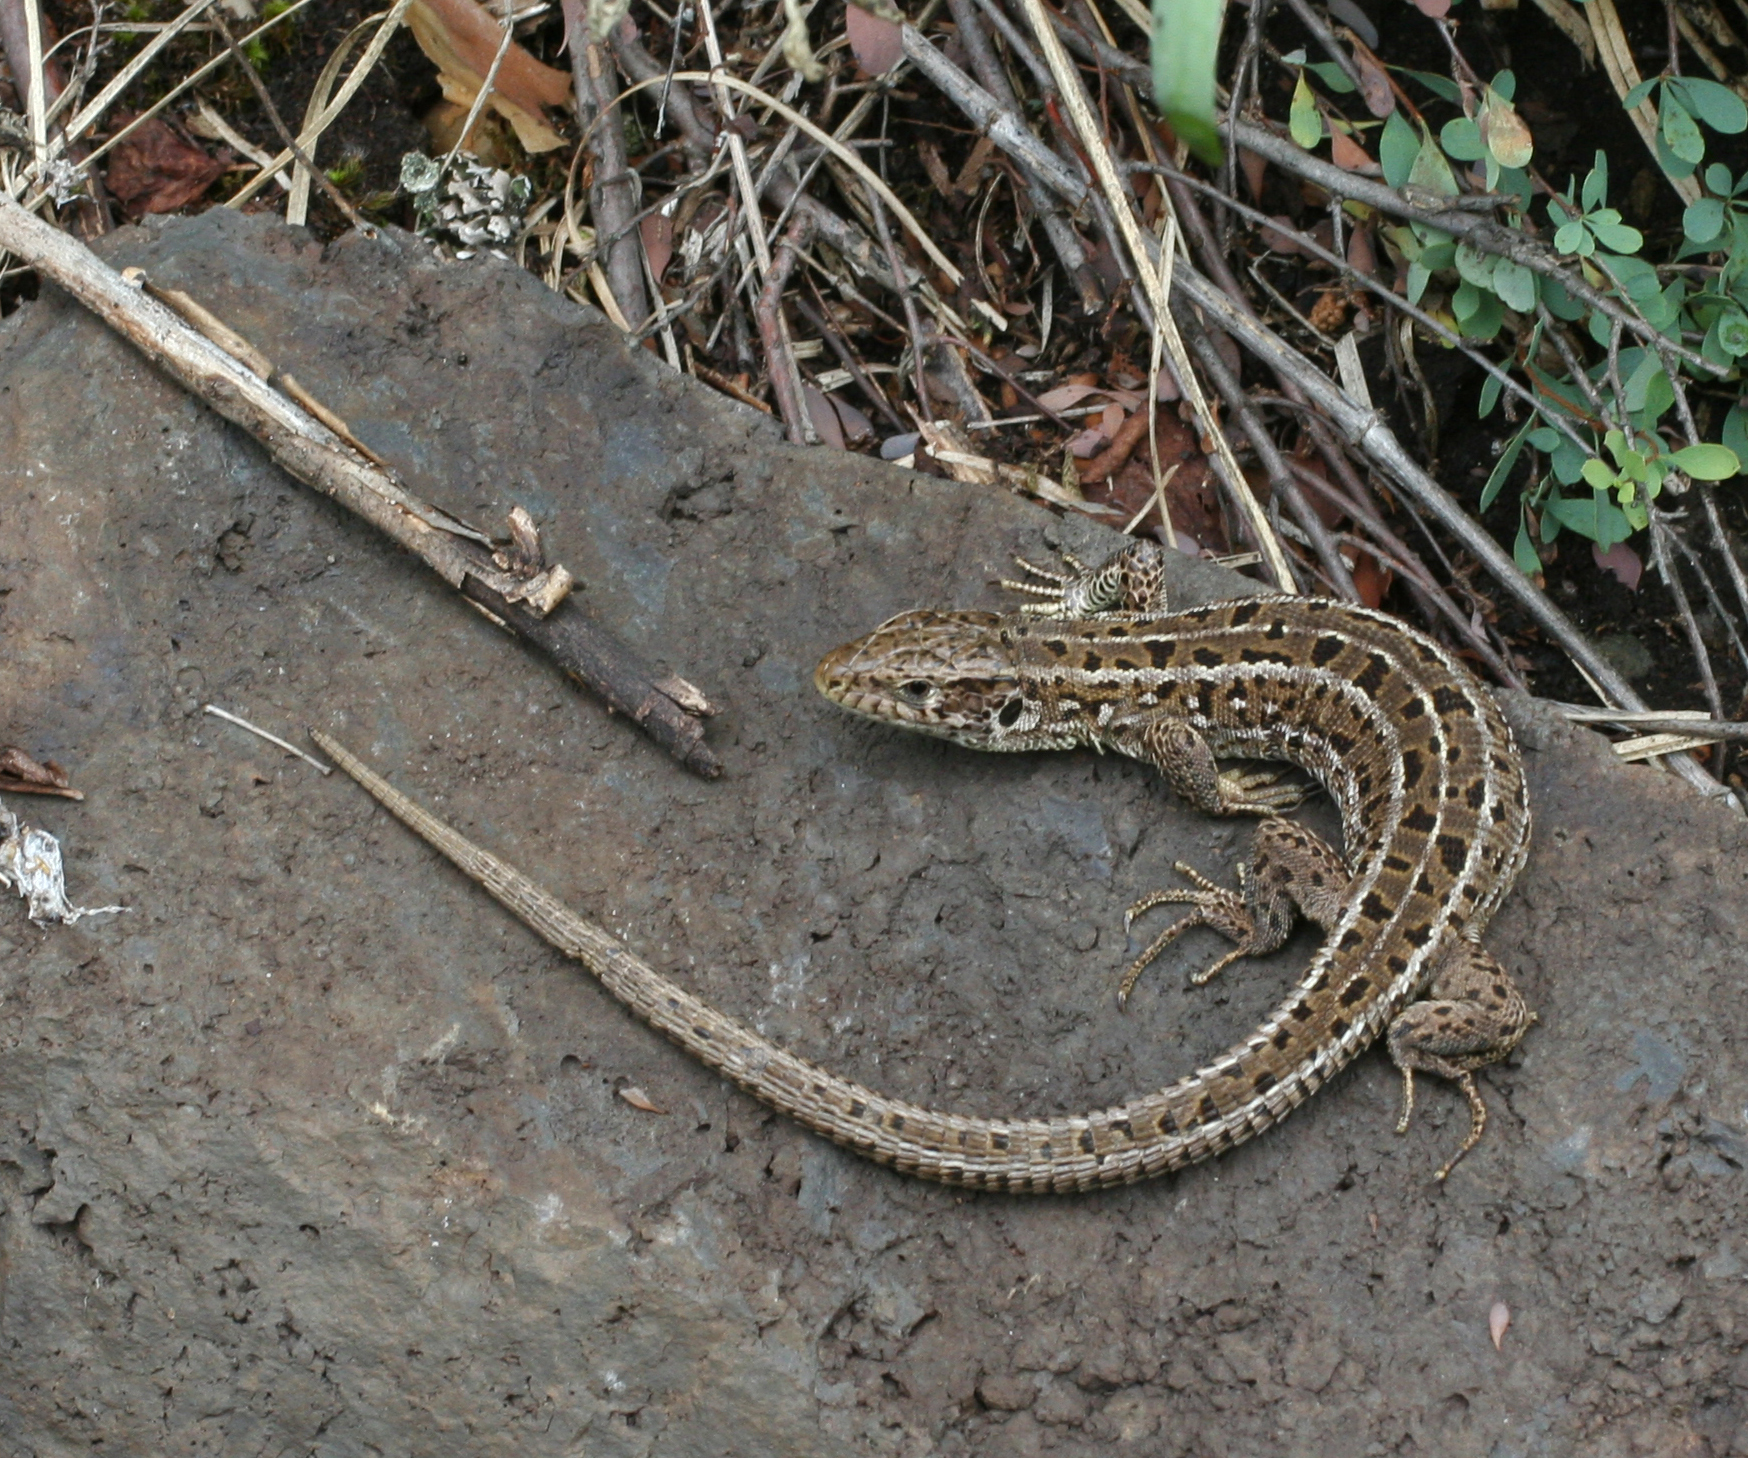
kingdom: Animalia
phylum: Chordata
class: Squamata
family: Lacertidae
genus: Lacerta
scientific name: Lacerta agilis
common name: Sand lizard
